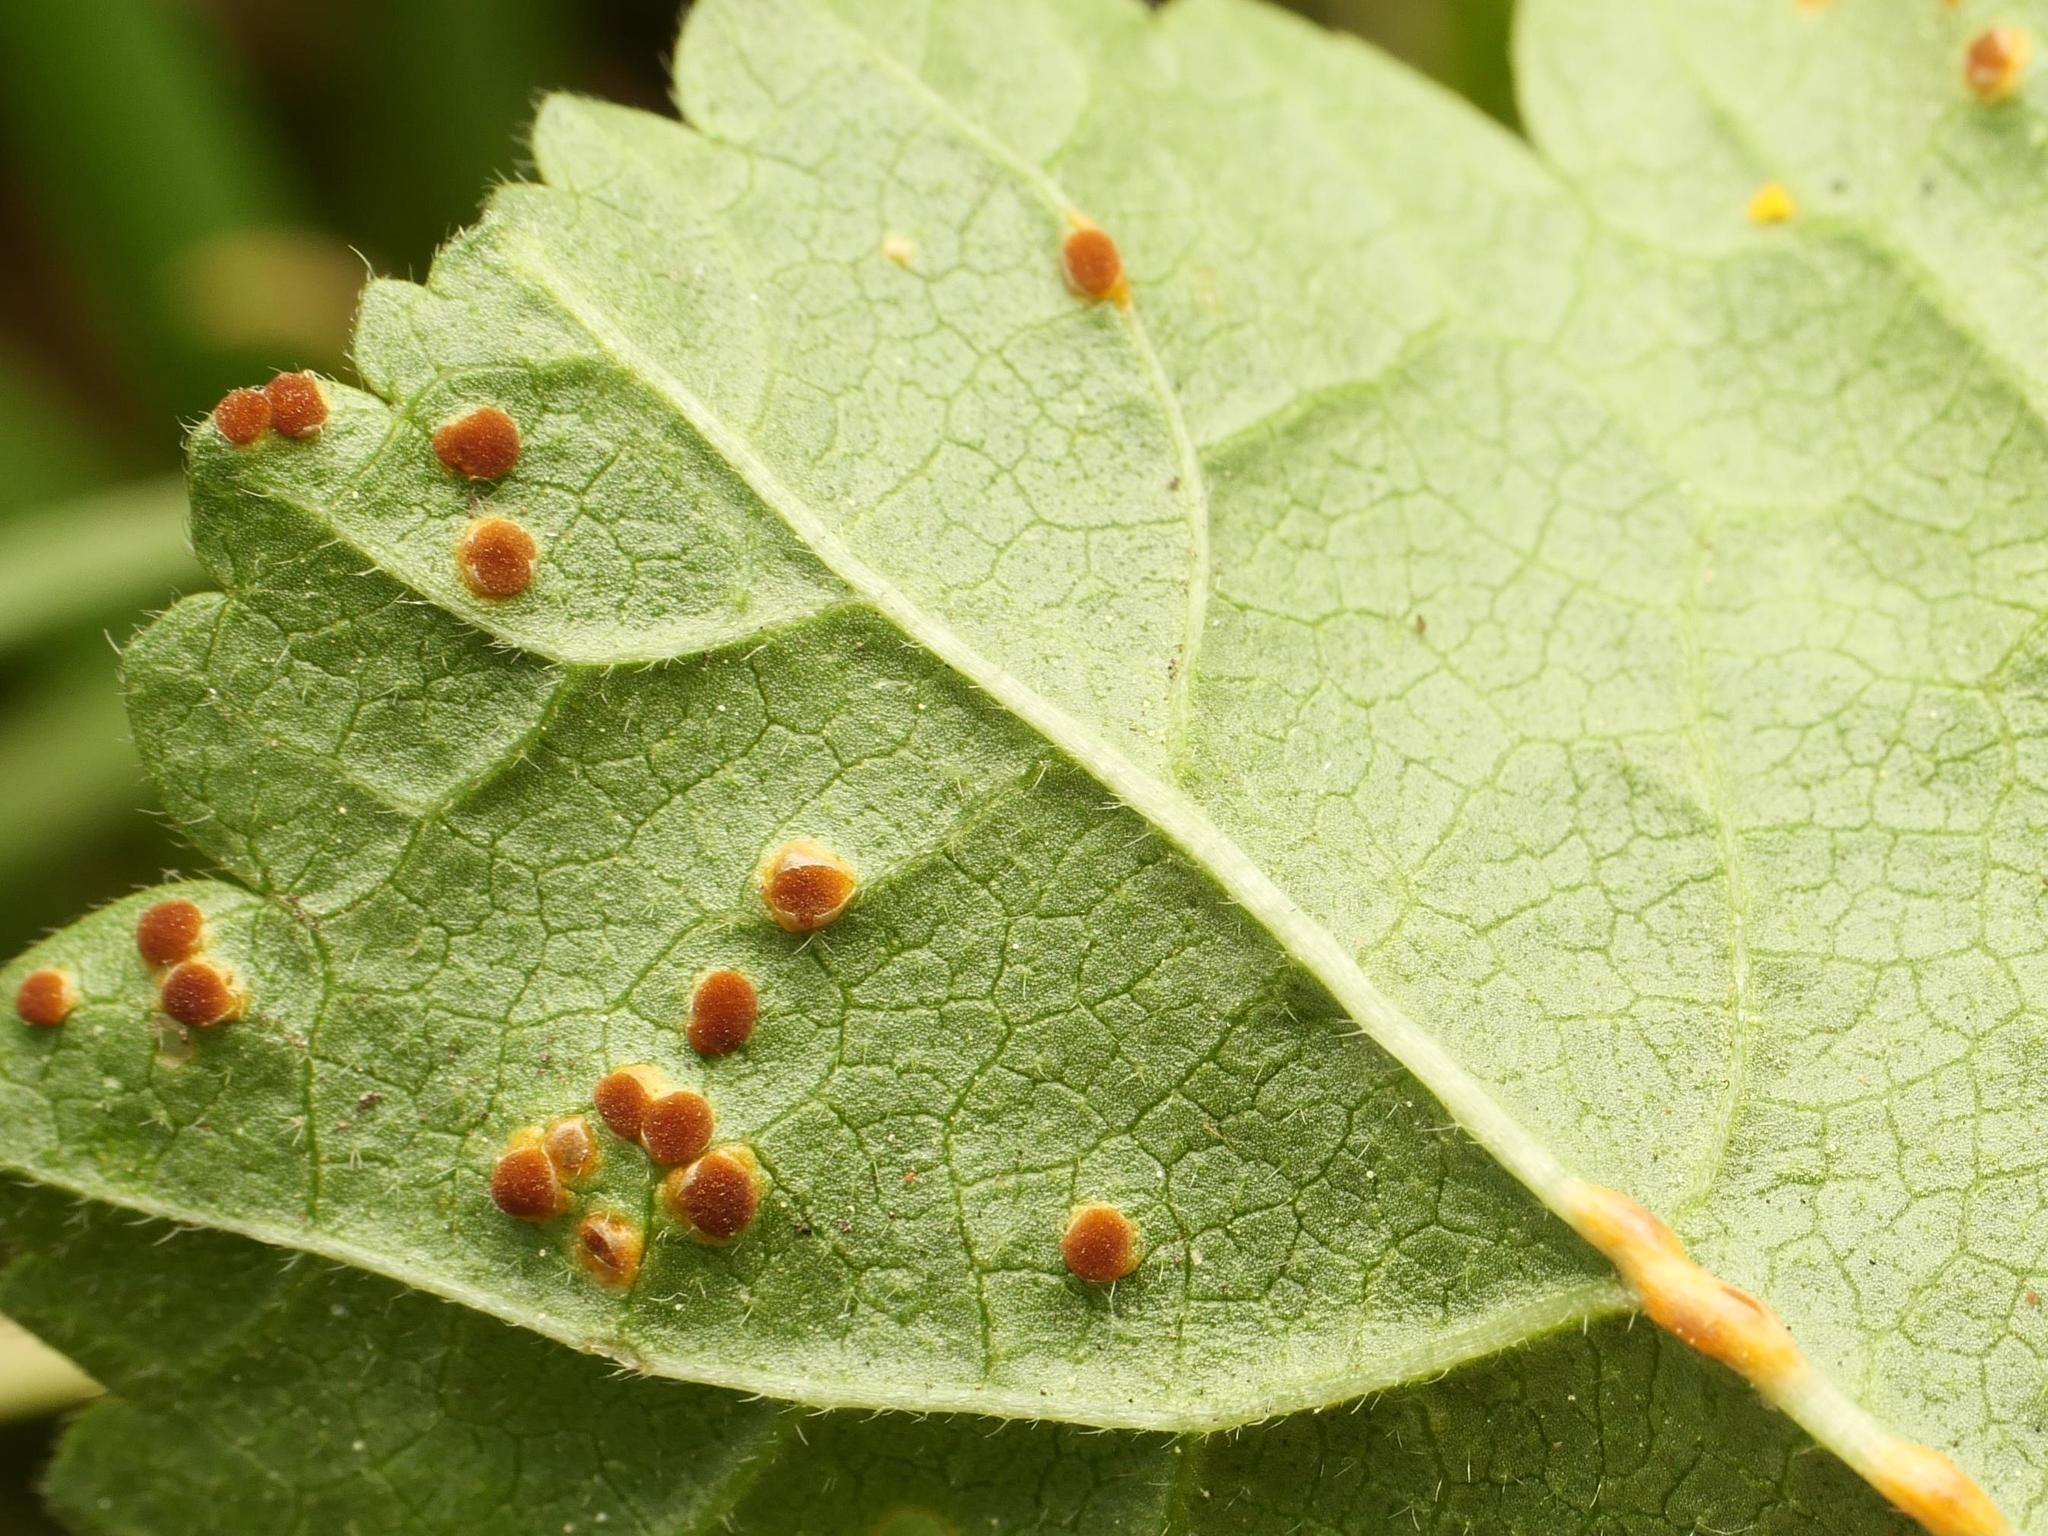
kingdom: Fungi
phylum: Basidiomycota
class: Pucciniomycetes
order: Pucciniales
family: Pucciniaceae
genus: Puccinia
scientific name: Puccinia malvacearum
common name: Hollyhock rust
